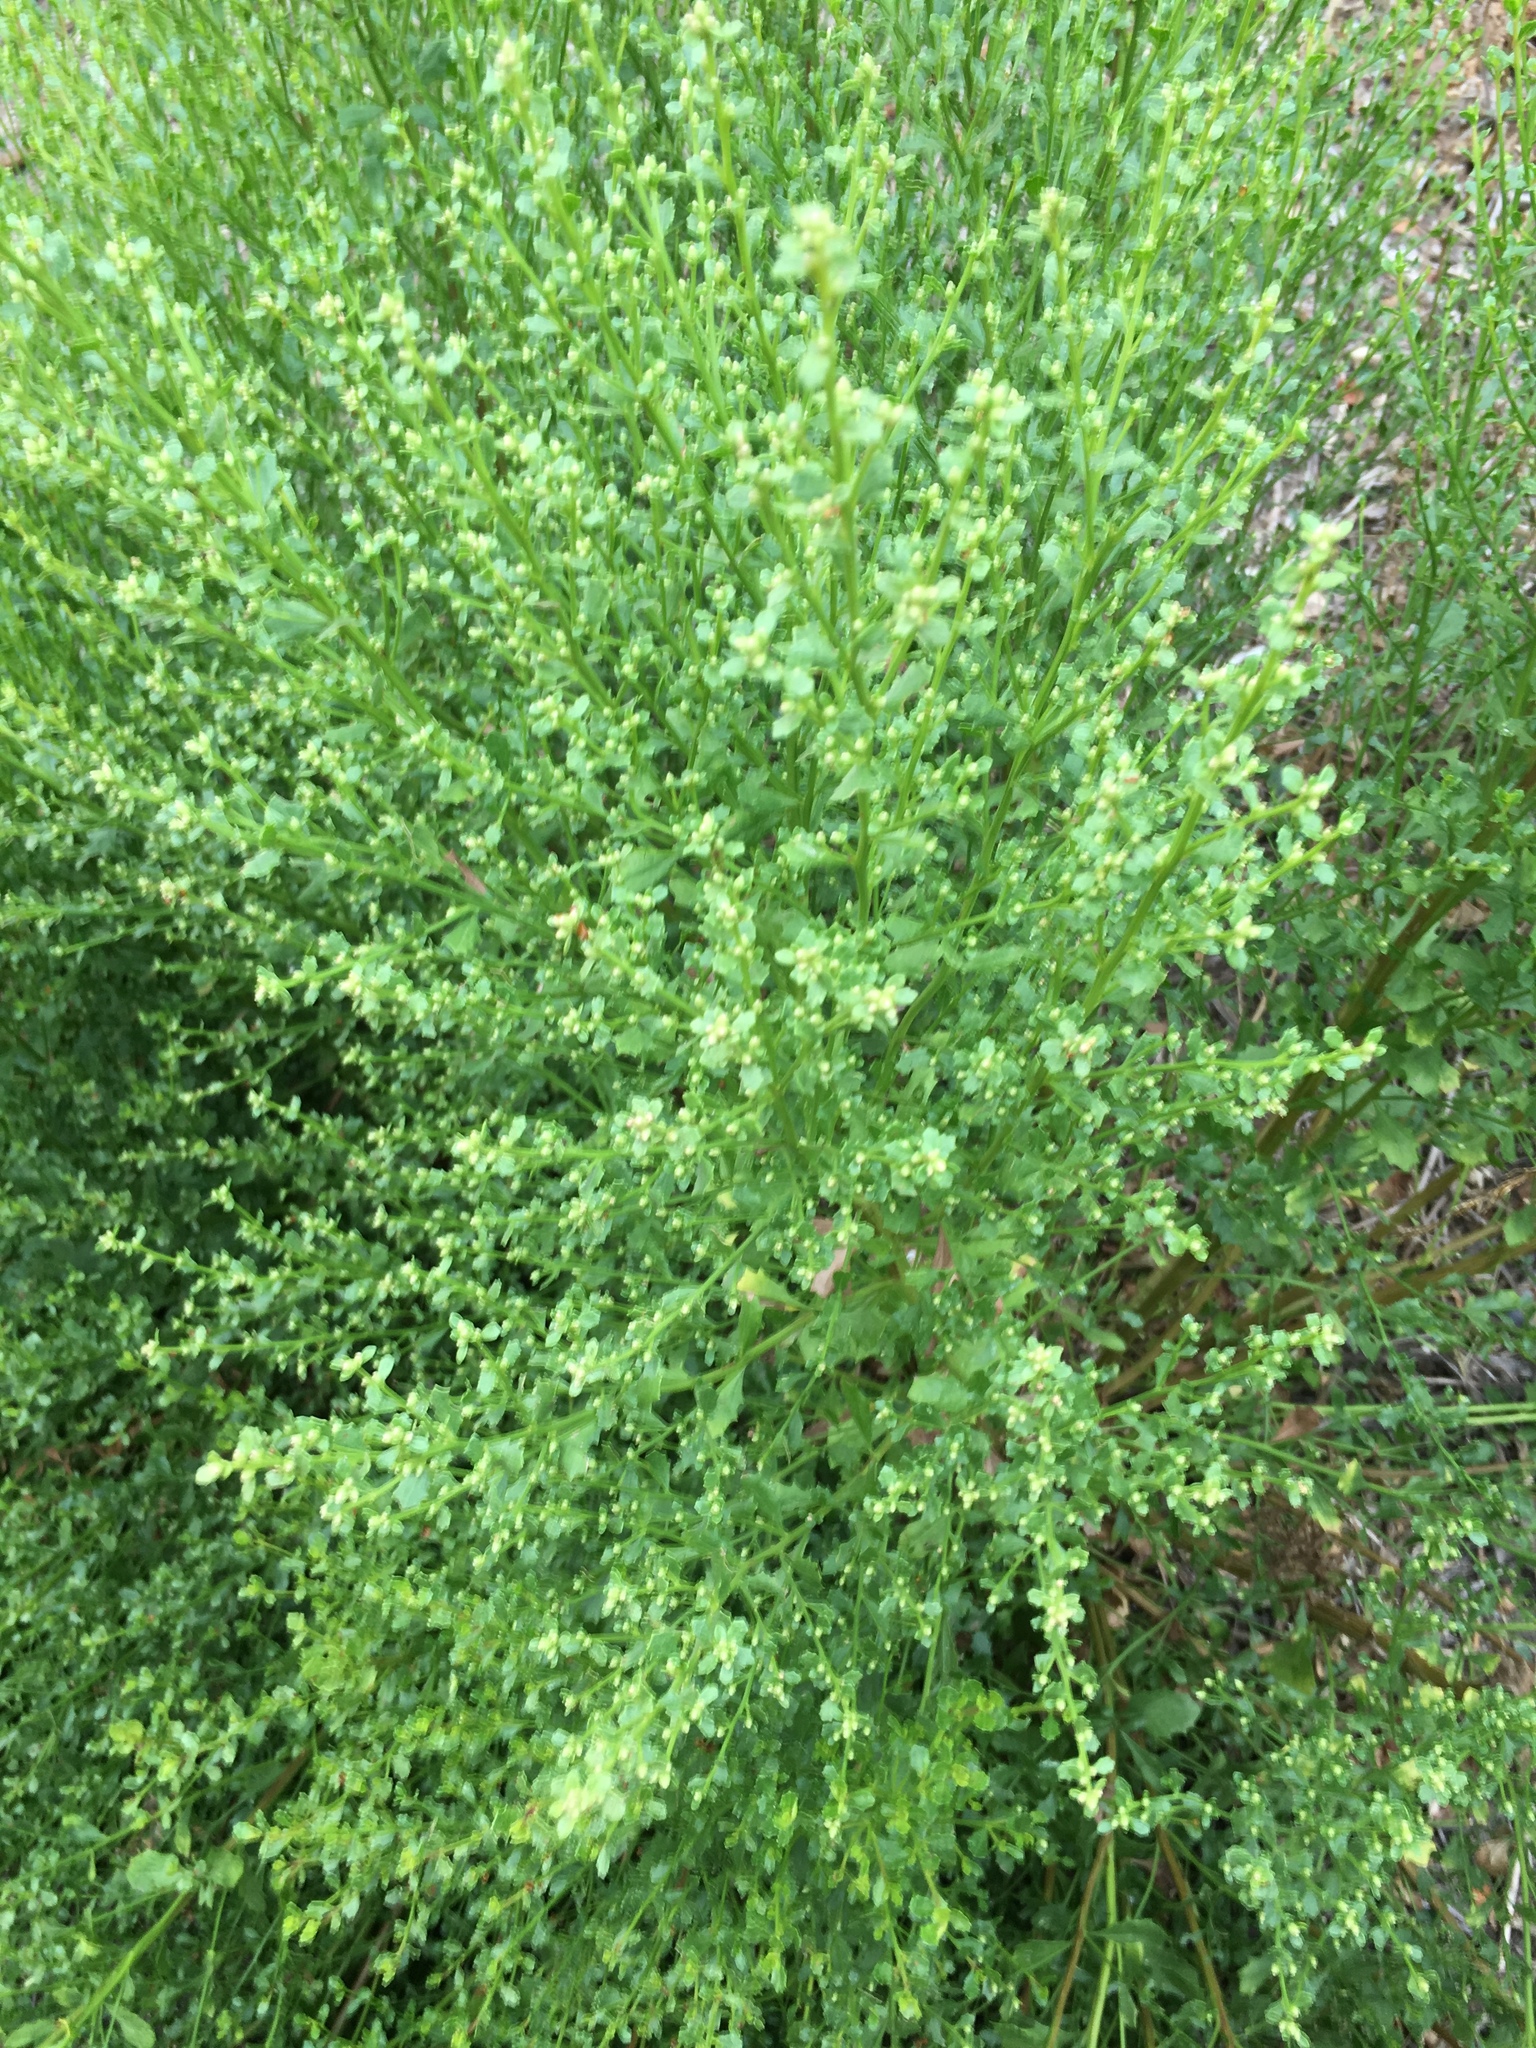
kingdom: Plantae
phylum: Tracheophyta
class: Magnoliopsida
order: Asterales
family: Asteraceae
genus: Baccharis
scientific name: Baccharis pilularis
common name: Coyotebrush
